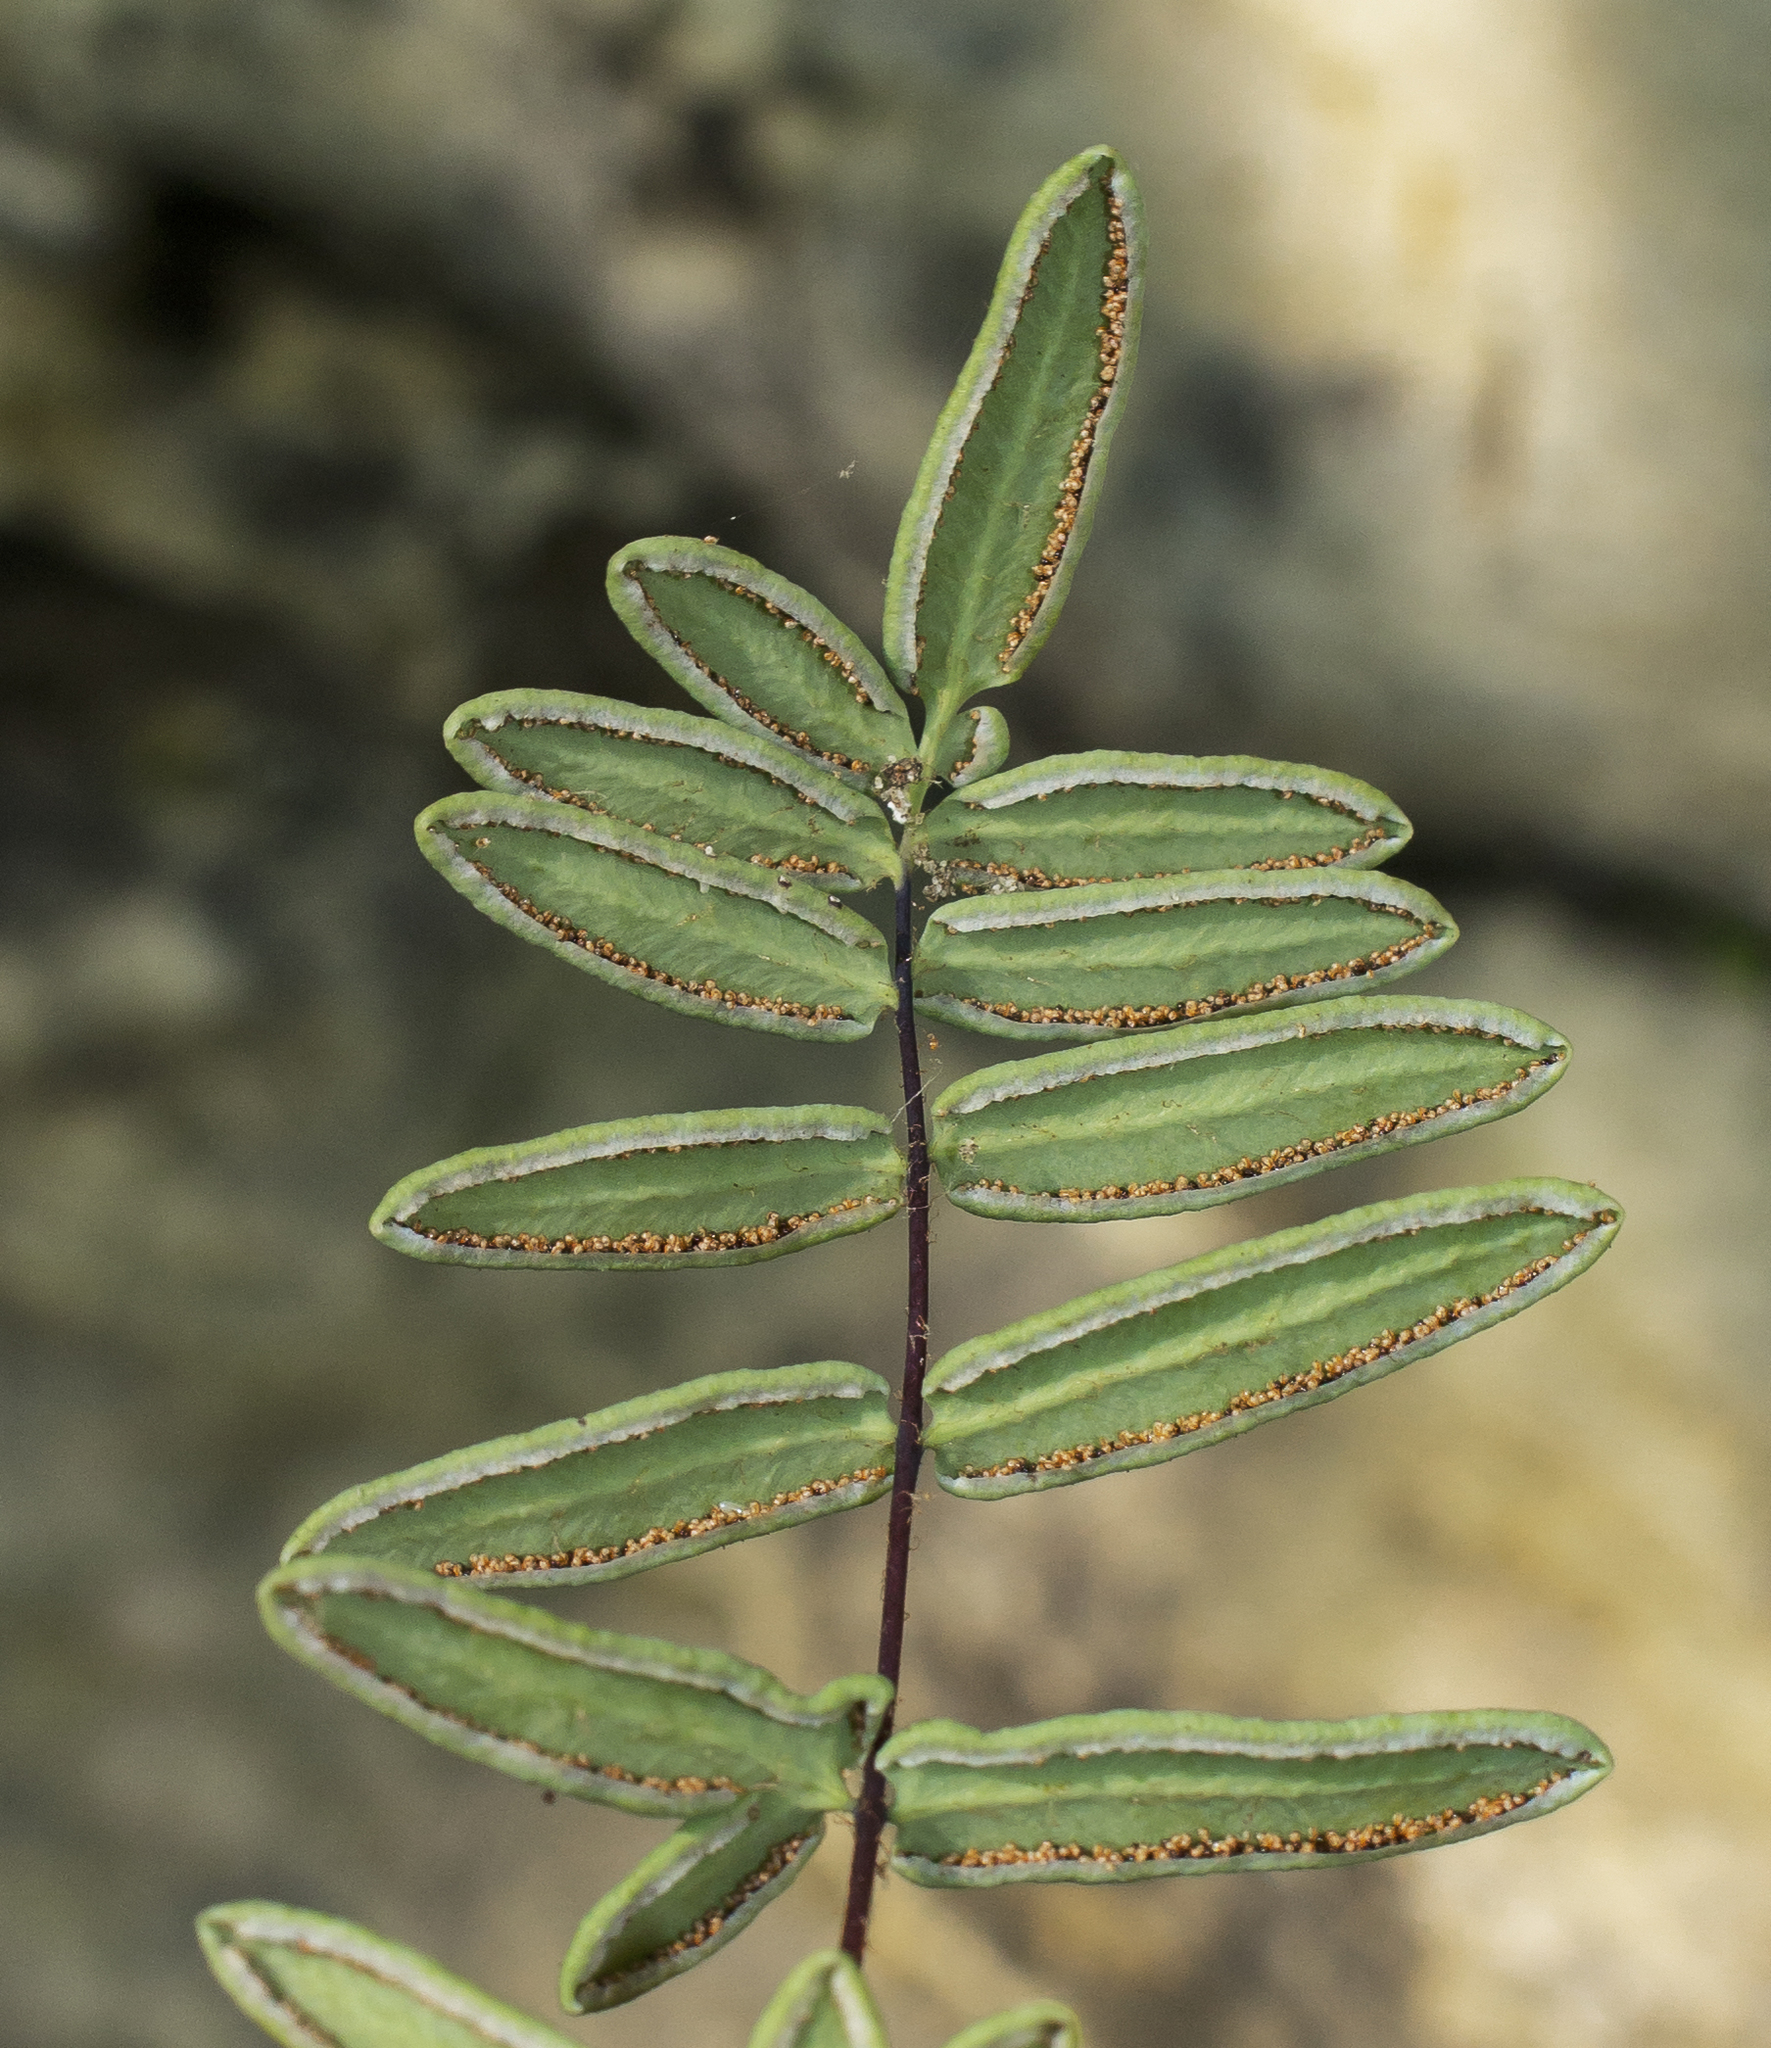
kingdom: Plantae
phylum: Tracheophyta
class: Polypodiopsida
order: Polypodiales
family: Pteridaceae
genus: Pellaea
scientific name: Pellaea glabella
